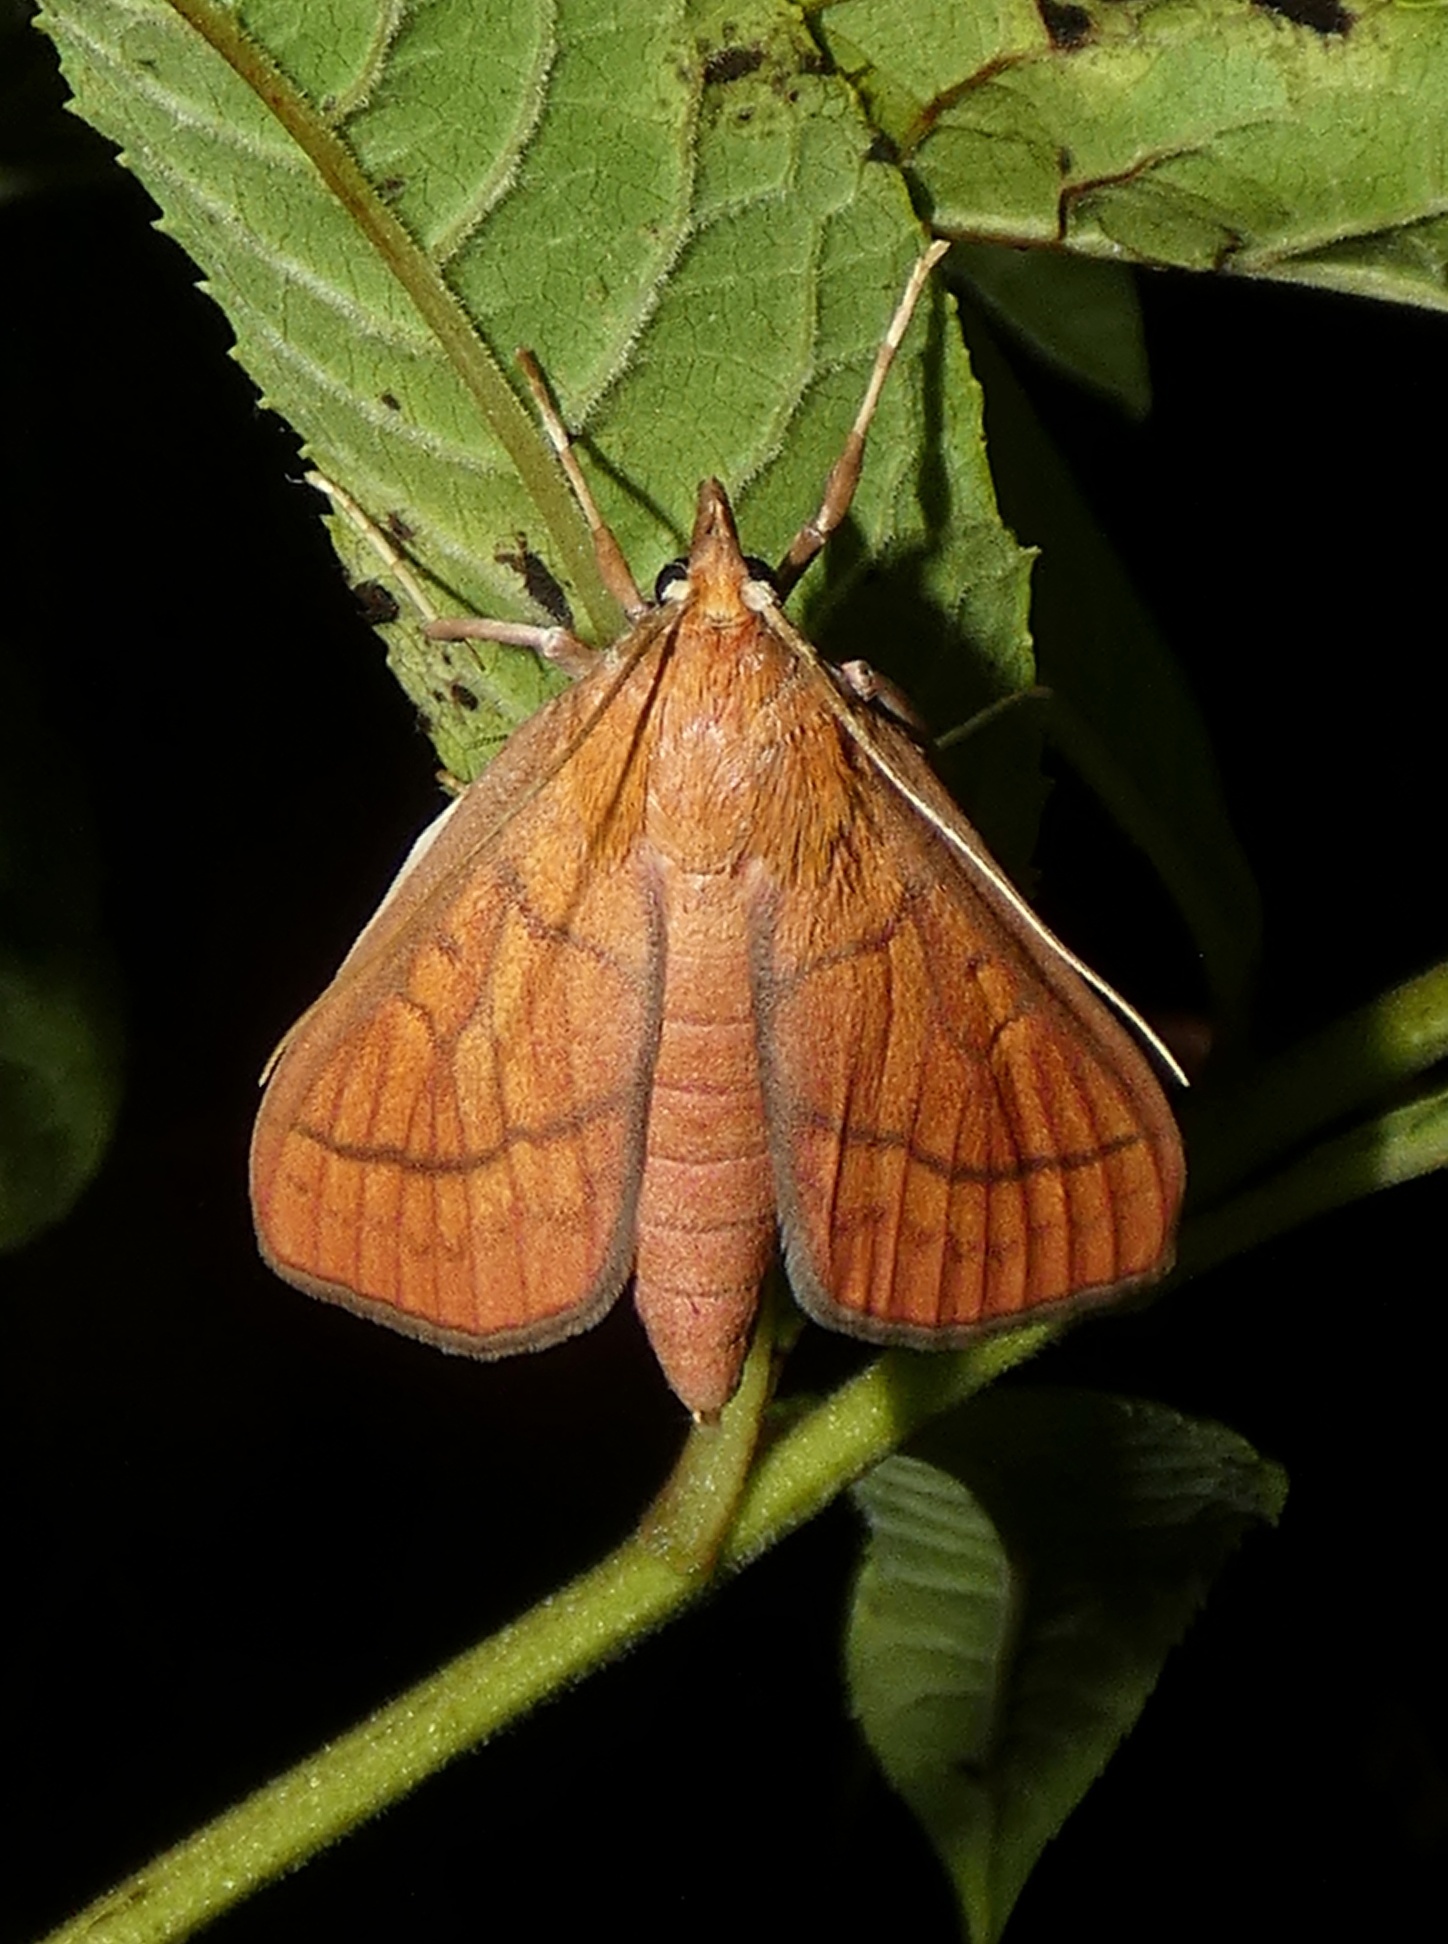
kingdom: Animalia
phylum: Arthropoda
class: Insecta
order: Lepidoptera
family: Crambidae
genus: Polygrammodes
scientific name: Polygrammodes hercules
